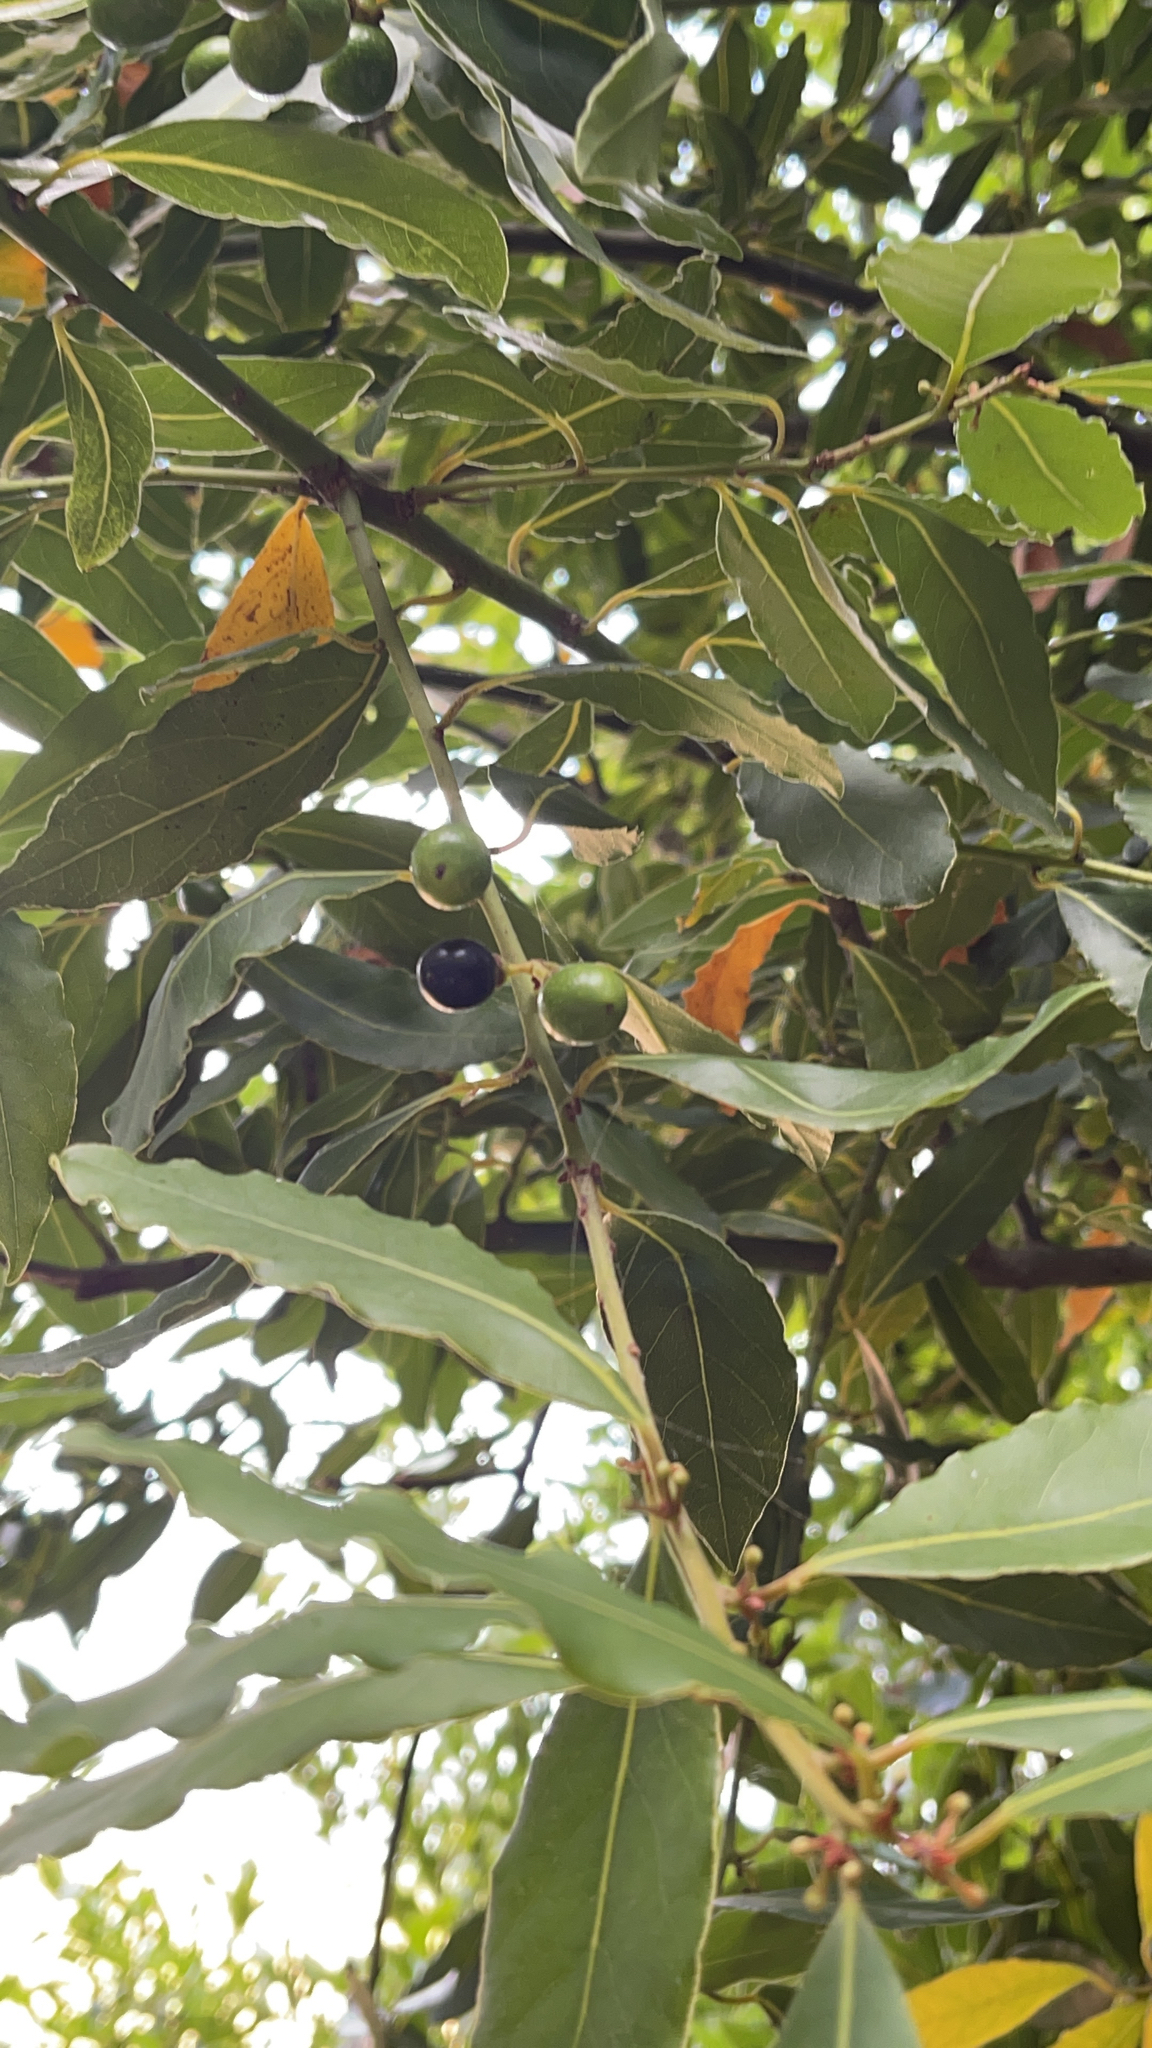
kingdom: Plantae
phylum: Tracheophyta
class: Magnoliopsida
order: Laurales
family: Lauraceae
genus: Laurus
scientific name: Laurus nobilis
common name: Bay
